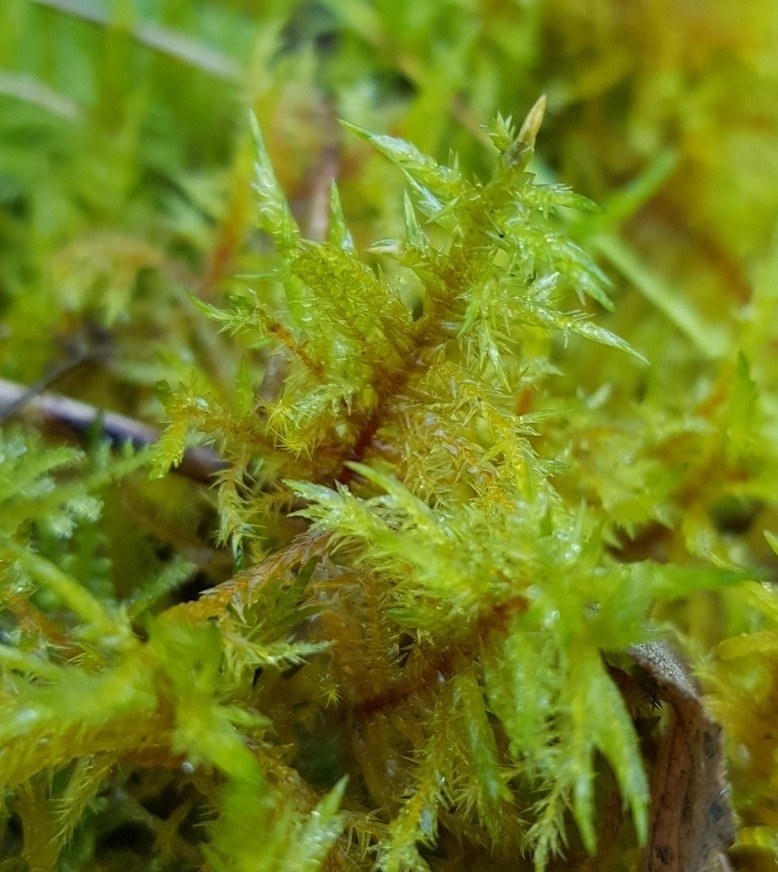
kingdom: Plantae
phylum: Bryophyta
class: Bryopsida
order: Hypnales
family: Pylaisiaceae
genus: Calliergonella
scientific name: Calliergonella cuspidata
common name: Common large wetland moss
